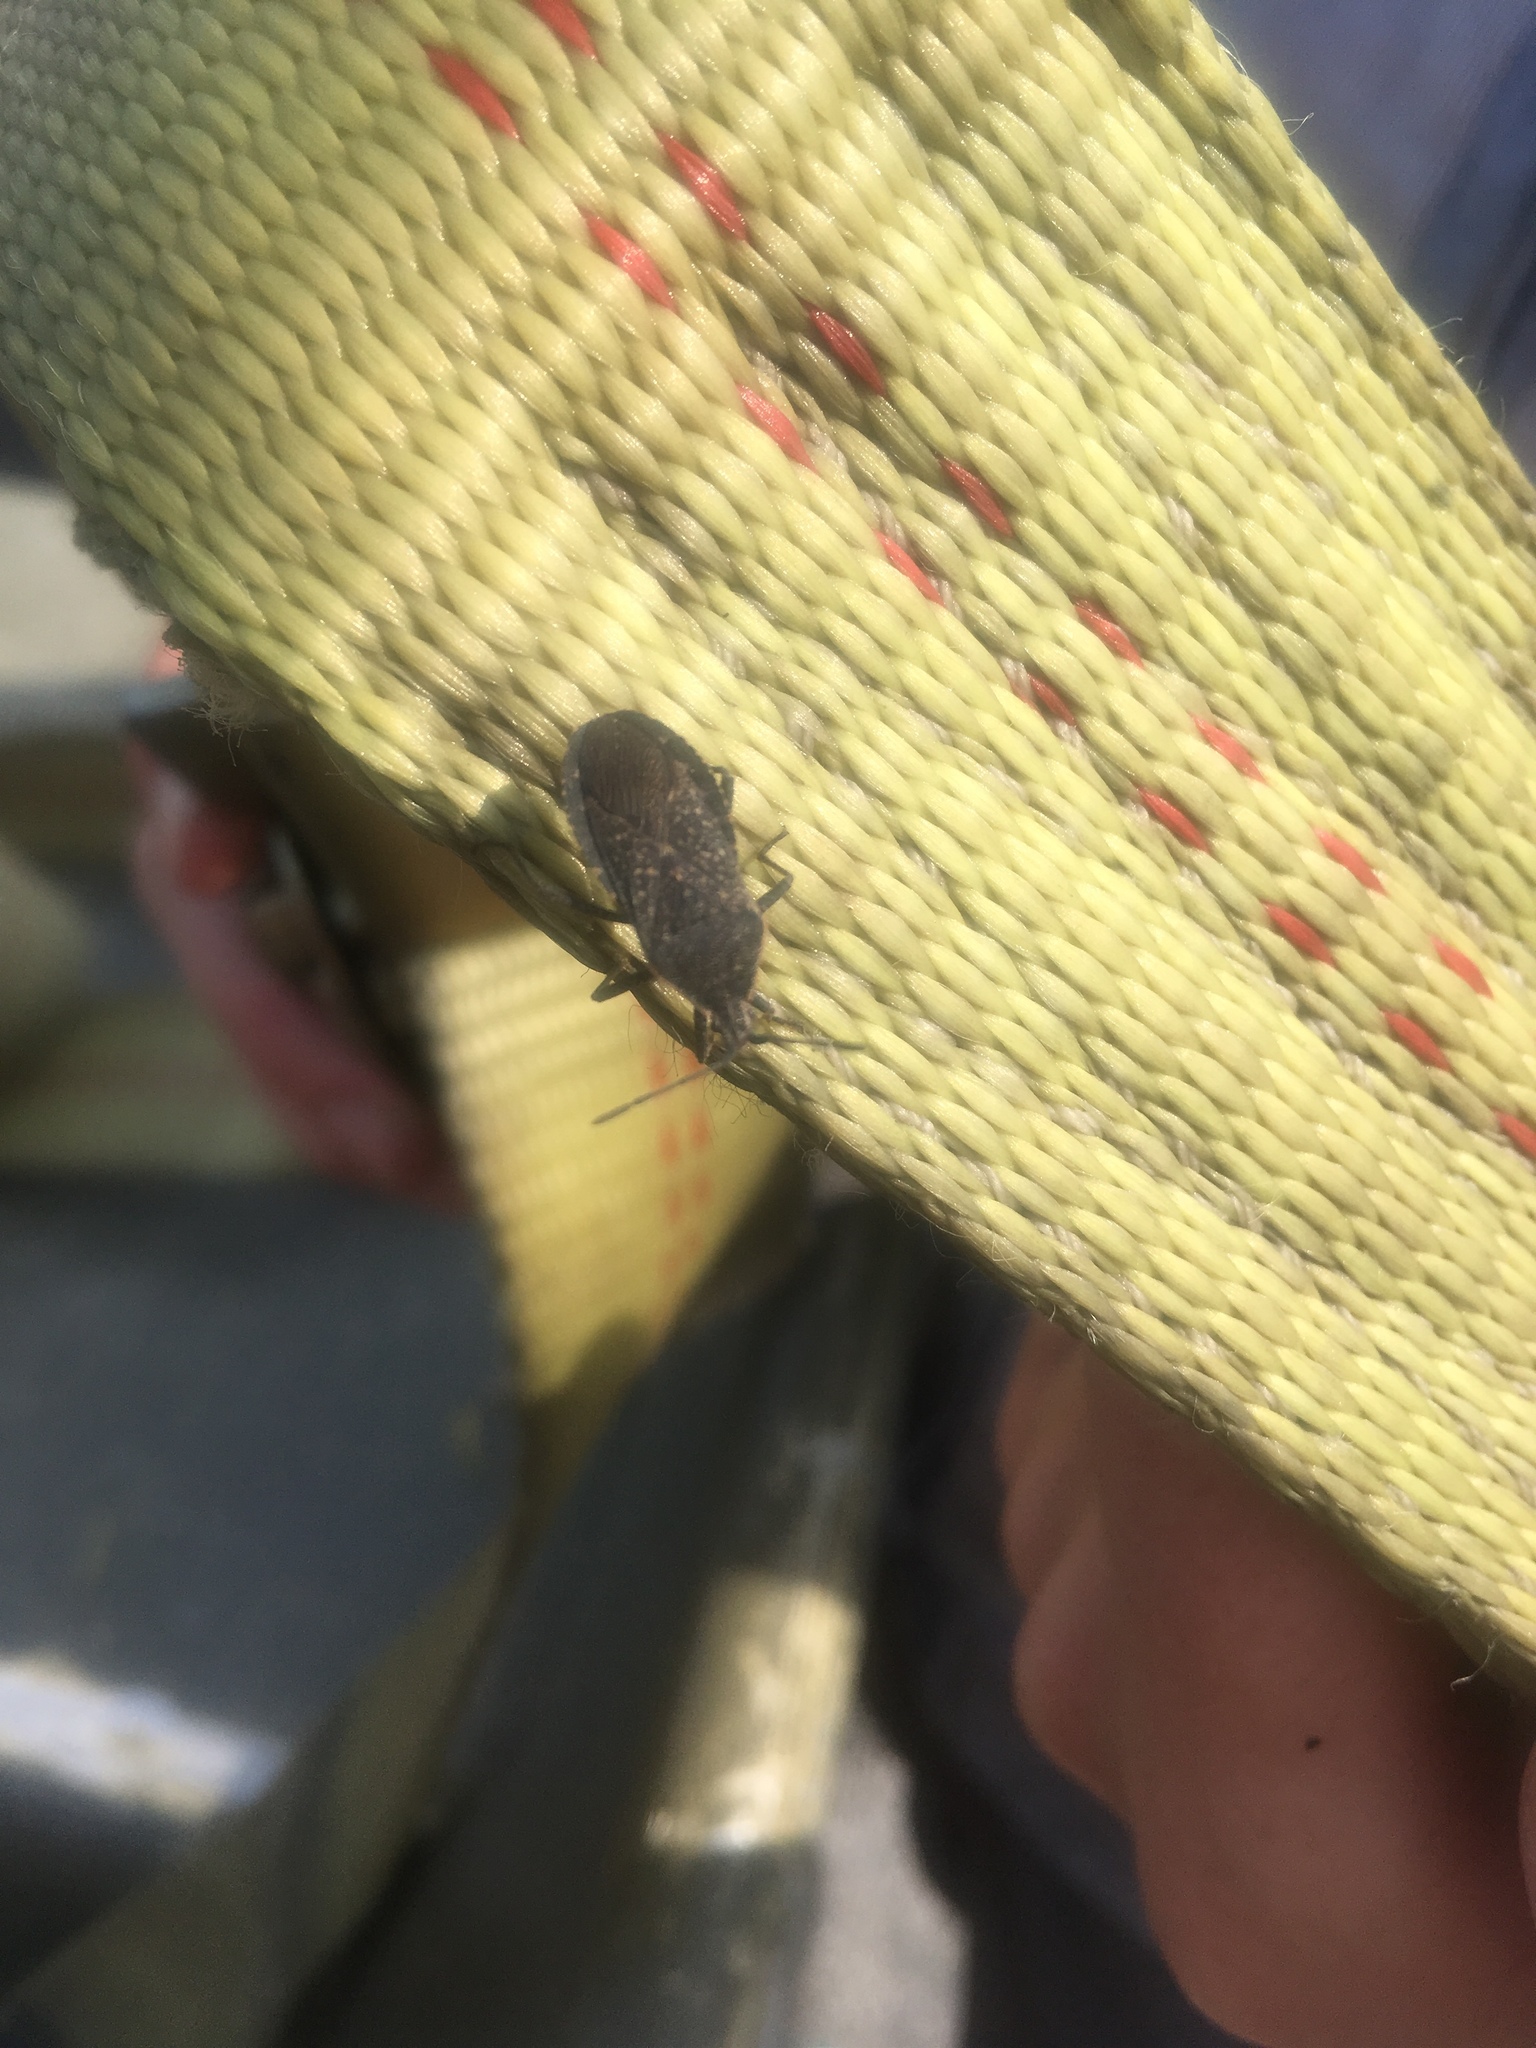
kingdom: Animalia
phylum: Arthropoda
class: Insecta
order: Hemiptera
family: Coreidae
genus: Anasa
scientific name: Anasa tristis
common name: Squash bug
